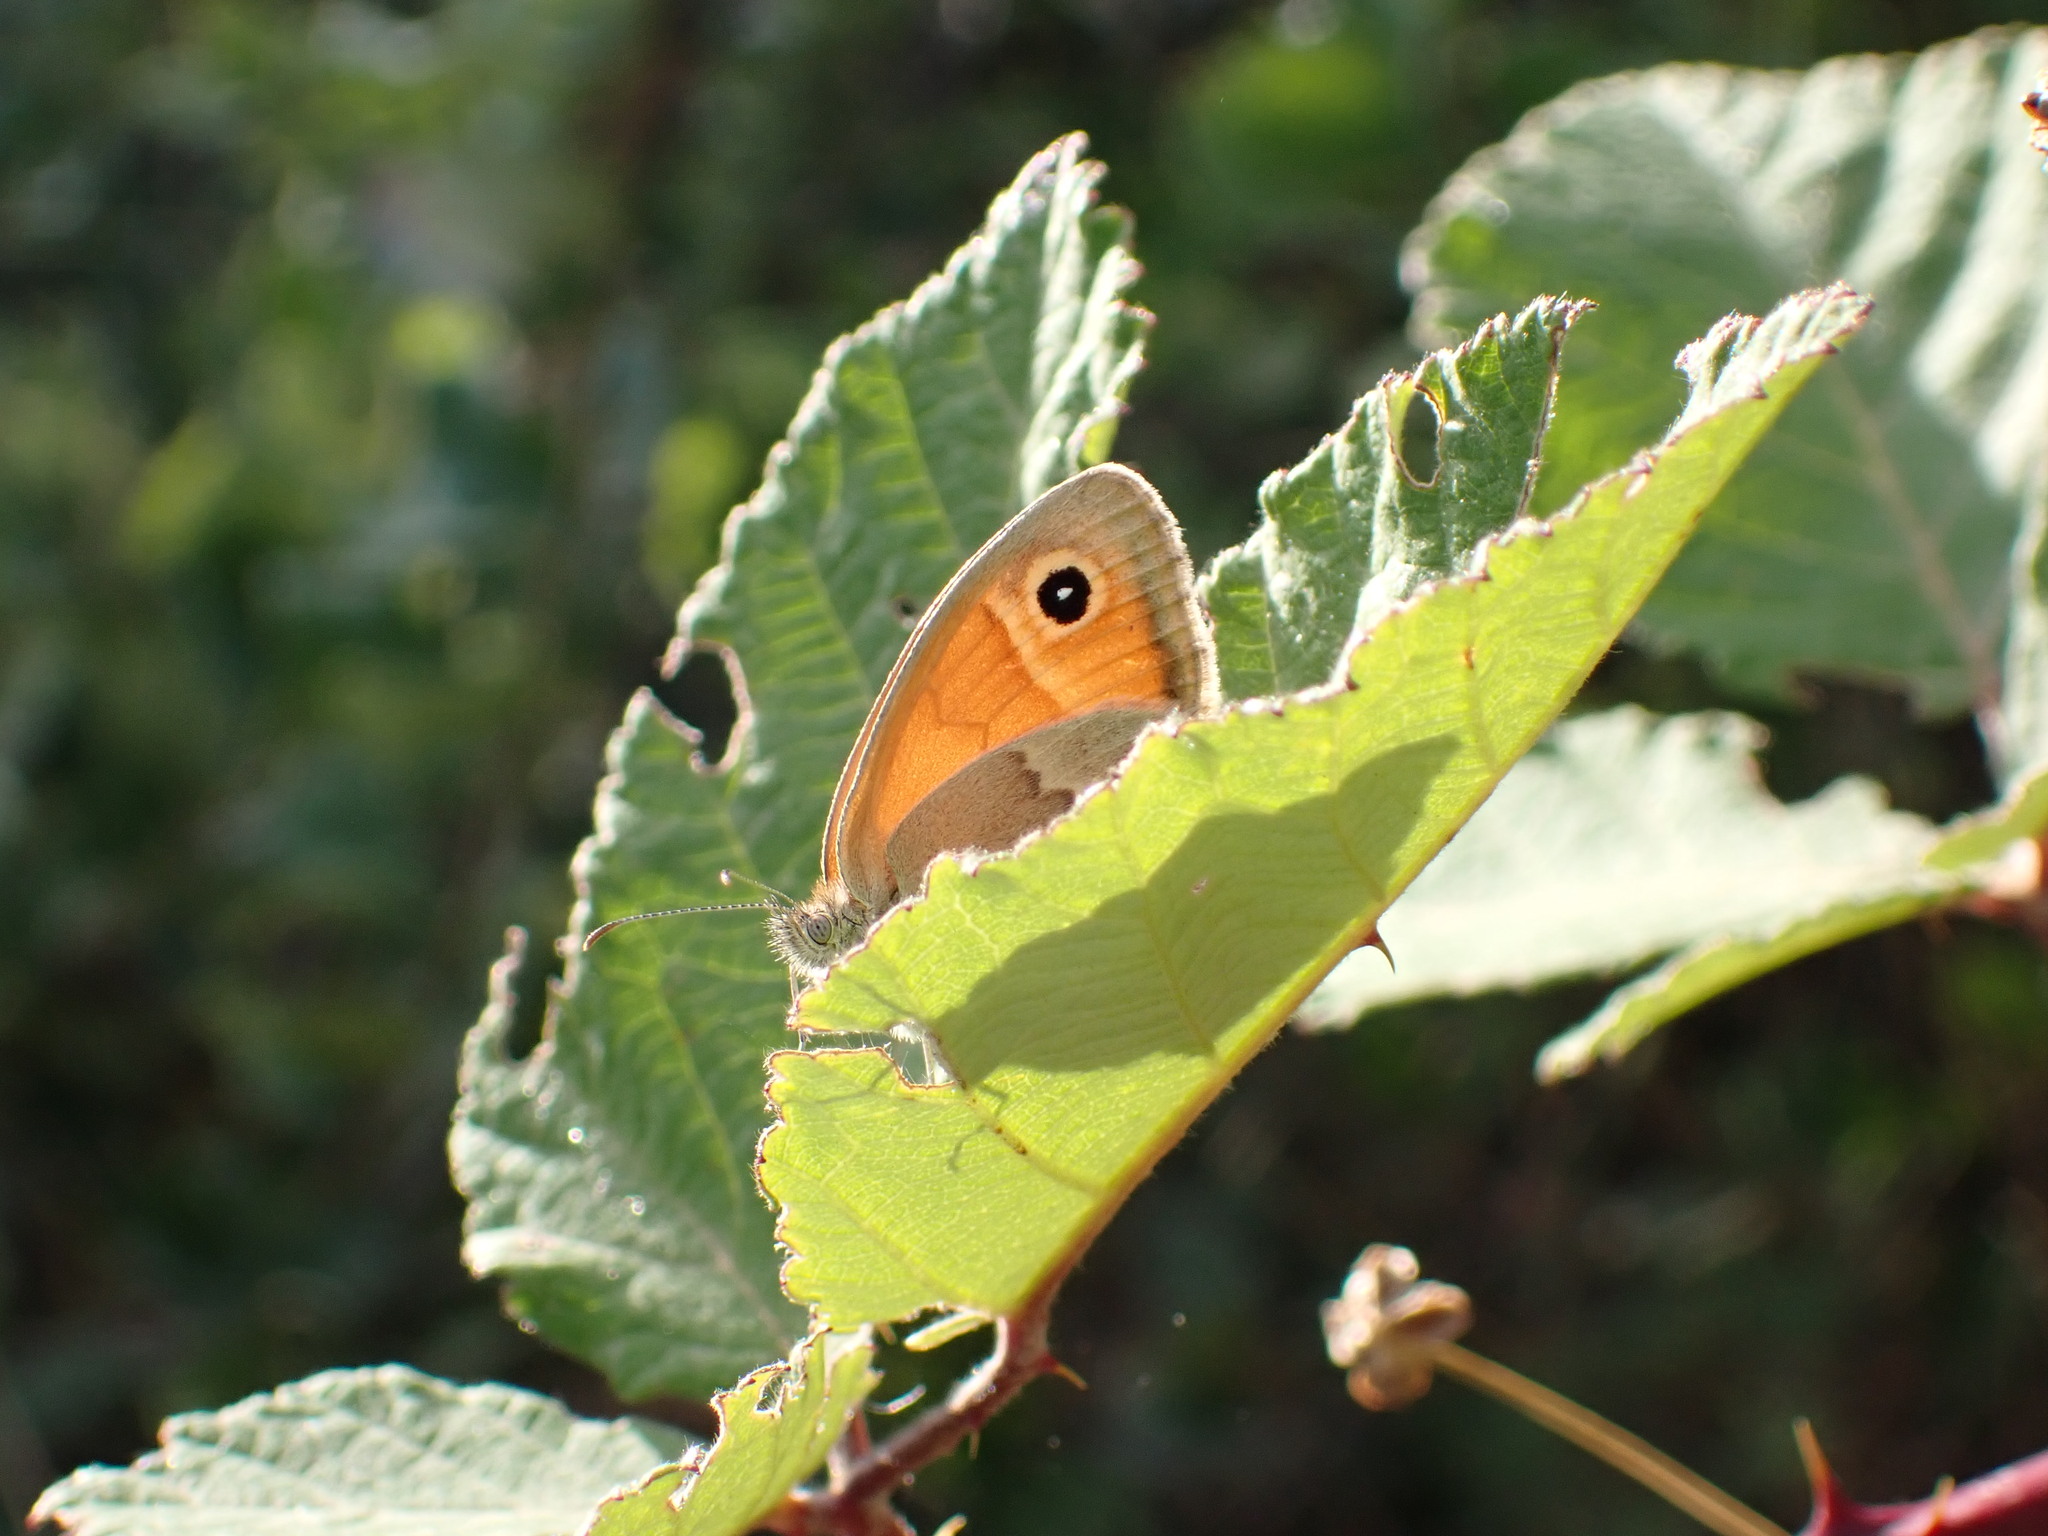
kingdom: Animalia
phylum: Arthropoda
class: Insecta
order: Lepidoptera
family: Nymphalidae
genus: Coenonympha
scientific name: Coenonympha pamphilus
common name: Small heath
